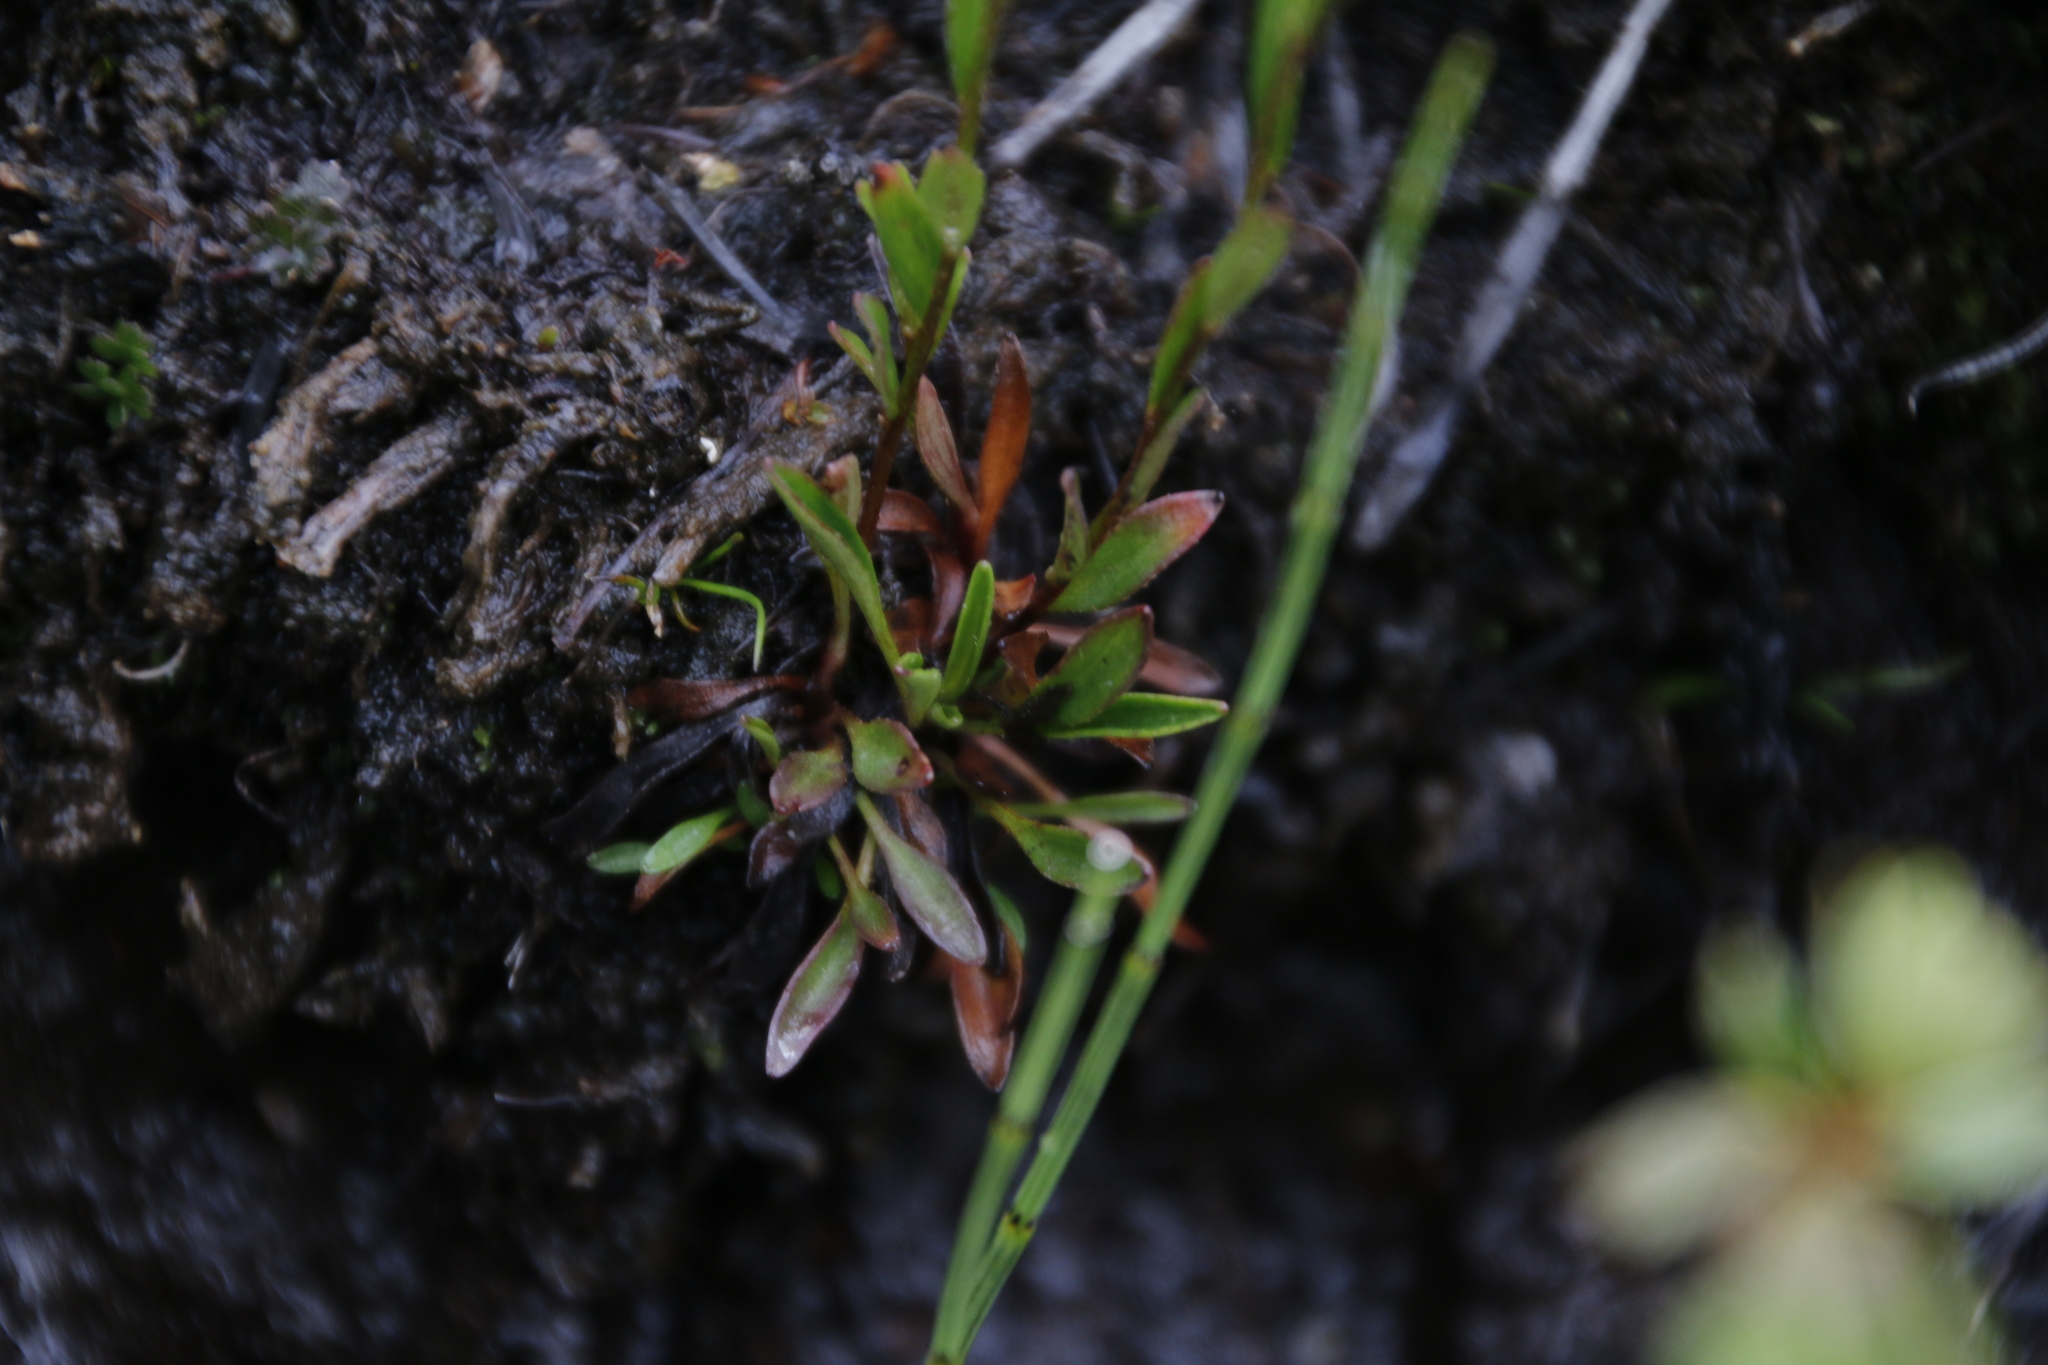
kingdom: Plantae
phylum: Tracheophyta
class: Magnoliopsida
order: Saxifragales
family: Saxifragaceae
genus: Saxifraga
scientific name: Saxifraga hirculus
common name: Yellow marsh saxifrage
